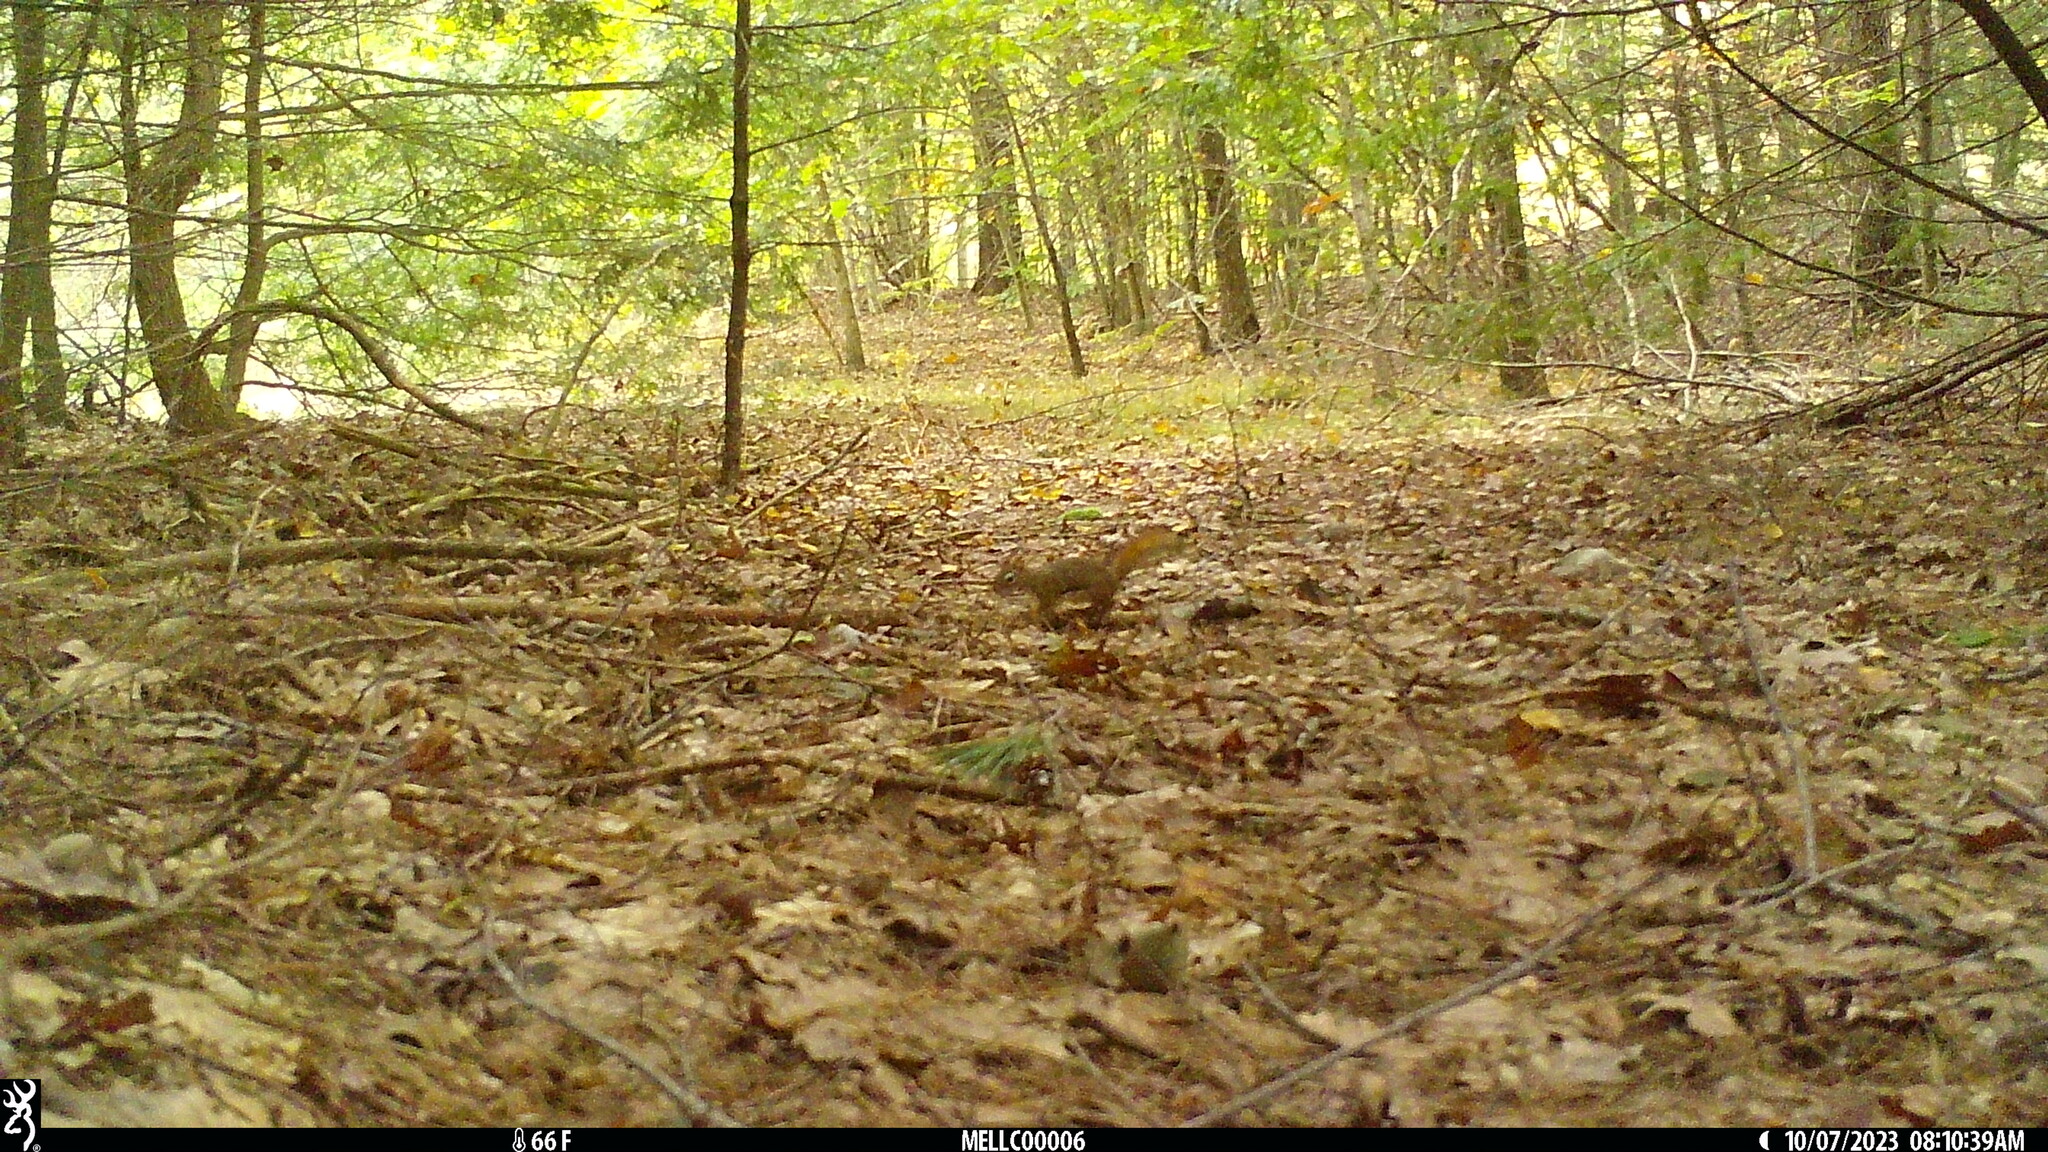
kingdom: Animalia
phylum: Chordata
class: Mammalia
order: Rodentia
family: Sciuridae
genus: Tamiasciurus
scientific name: Tamiasciurus hudsonicus
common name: Red squirrel
